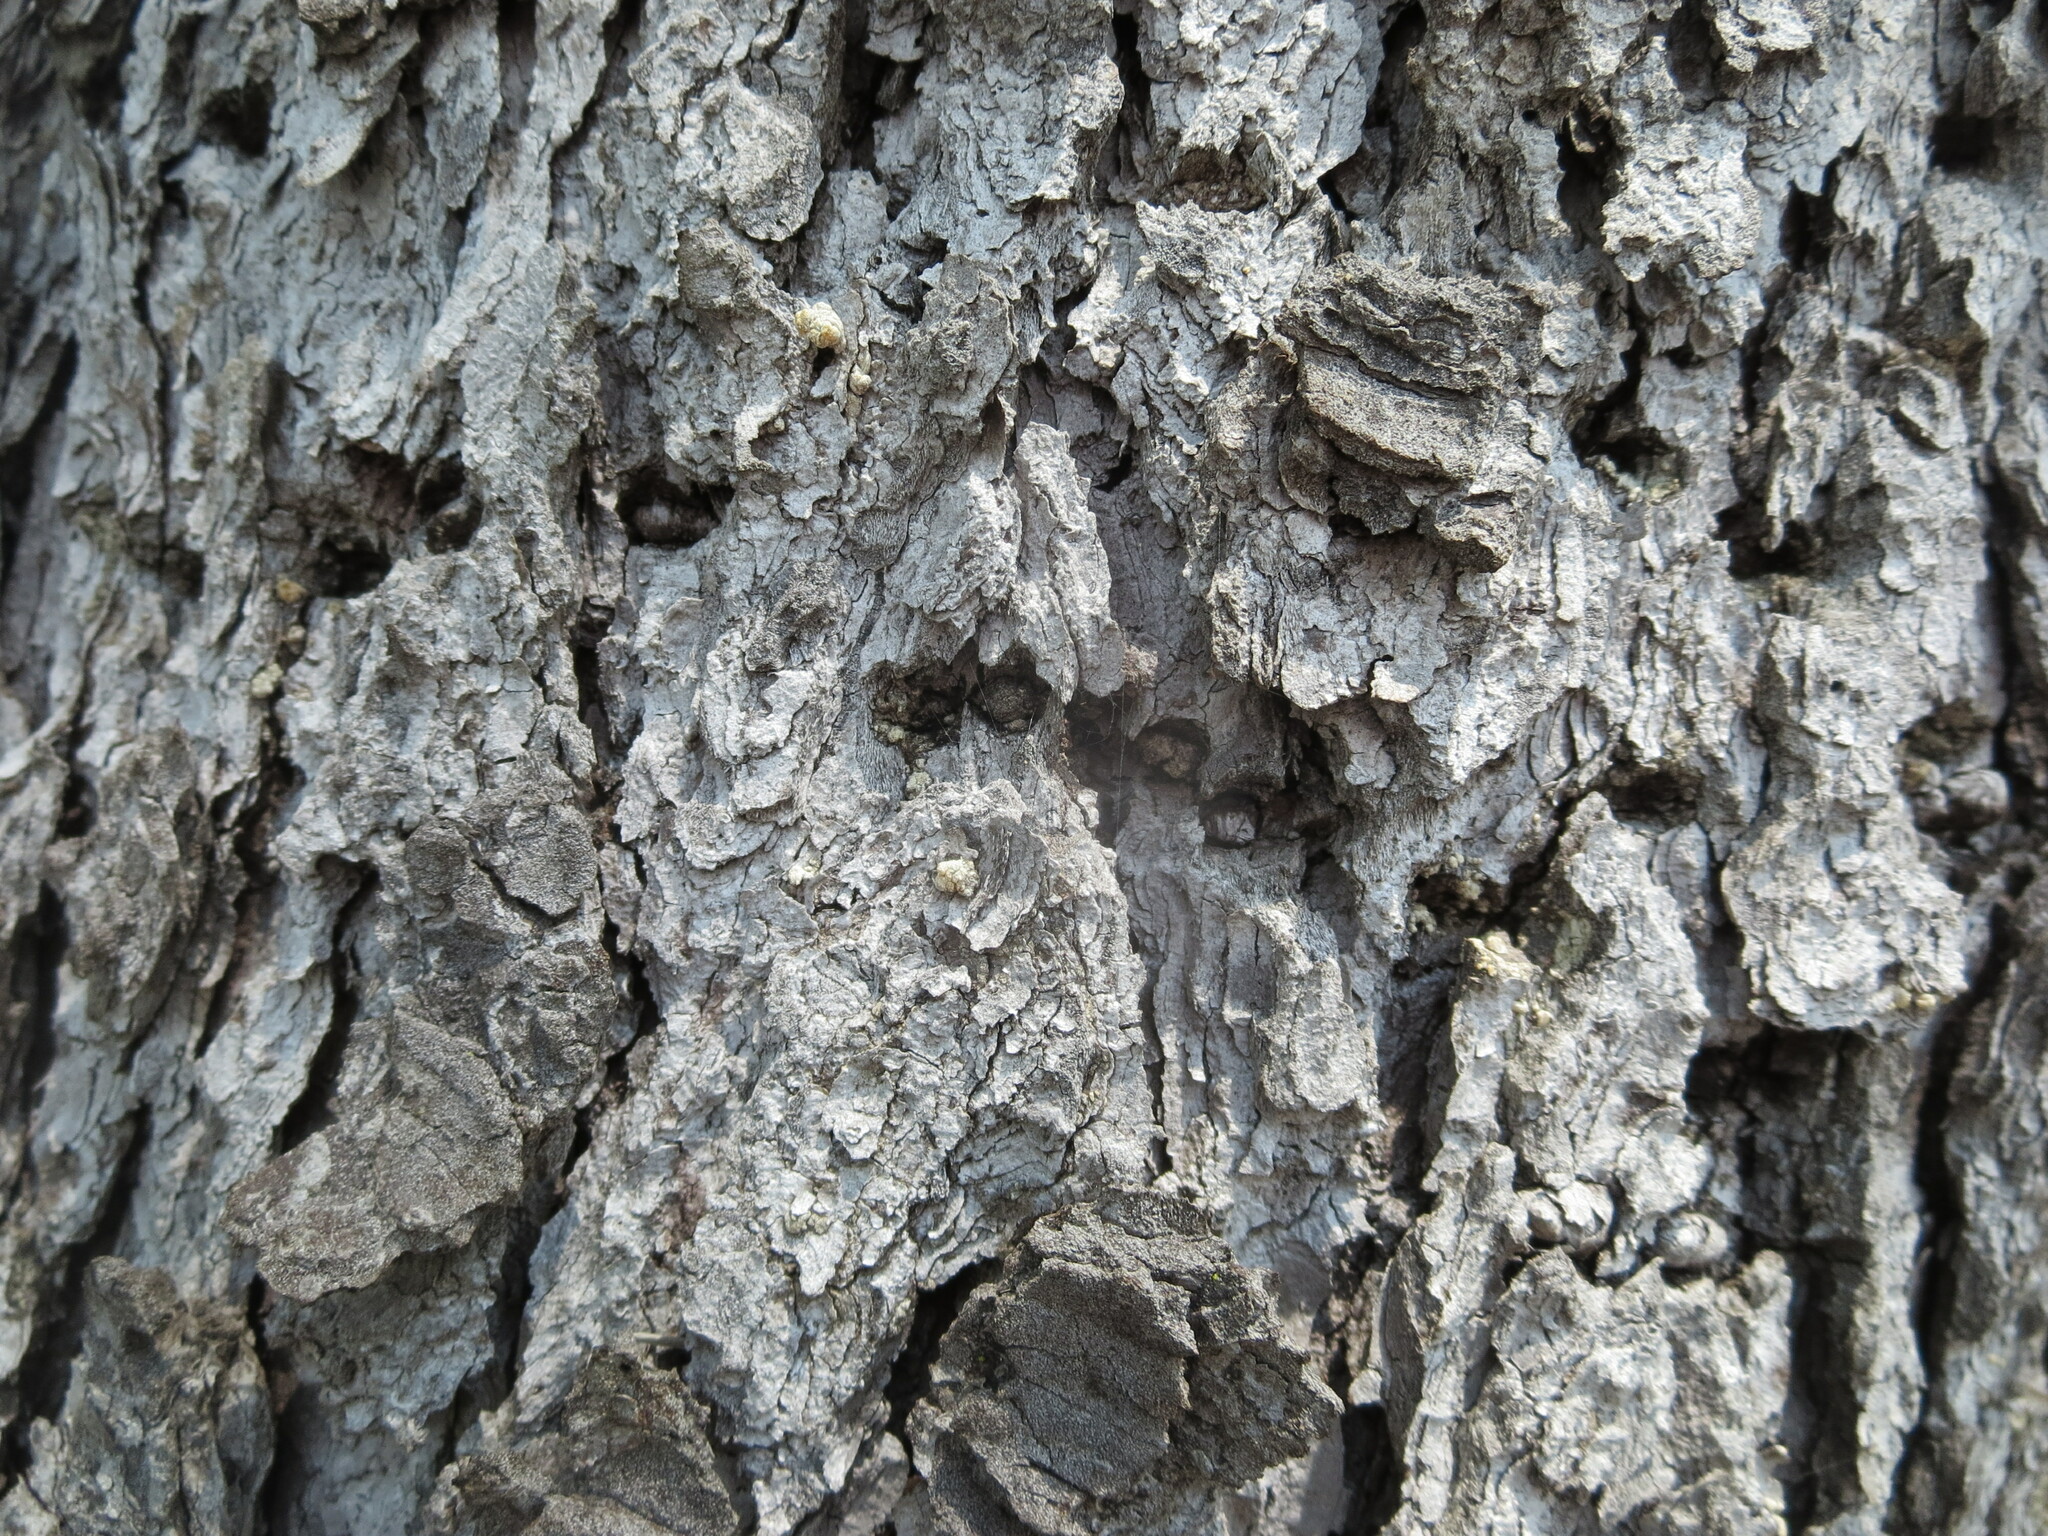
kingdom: Animalia
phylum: Chordata
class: Aves
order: Piciformes
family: Picidae
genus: Sphyrapicus
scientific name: Sphyrapicus varius
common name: Yellow-bellied sapsucker
